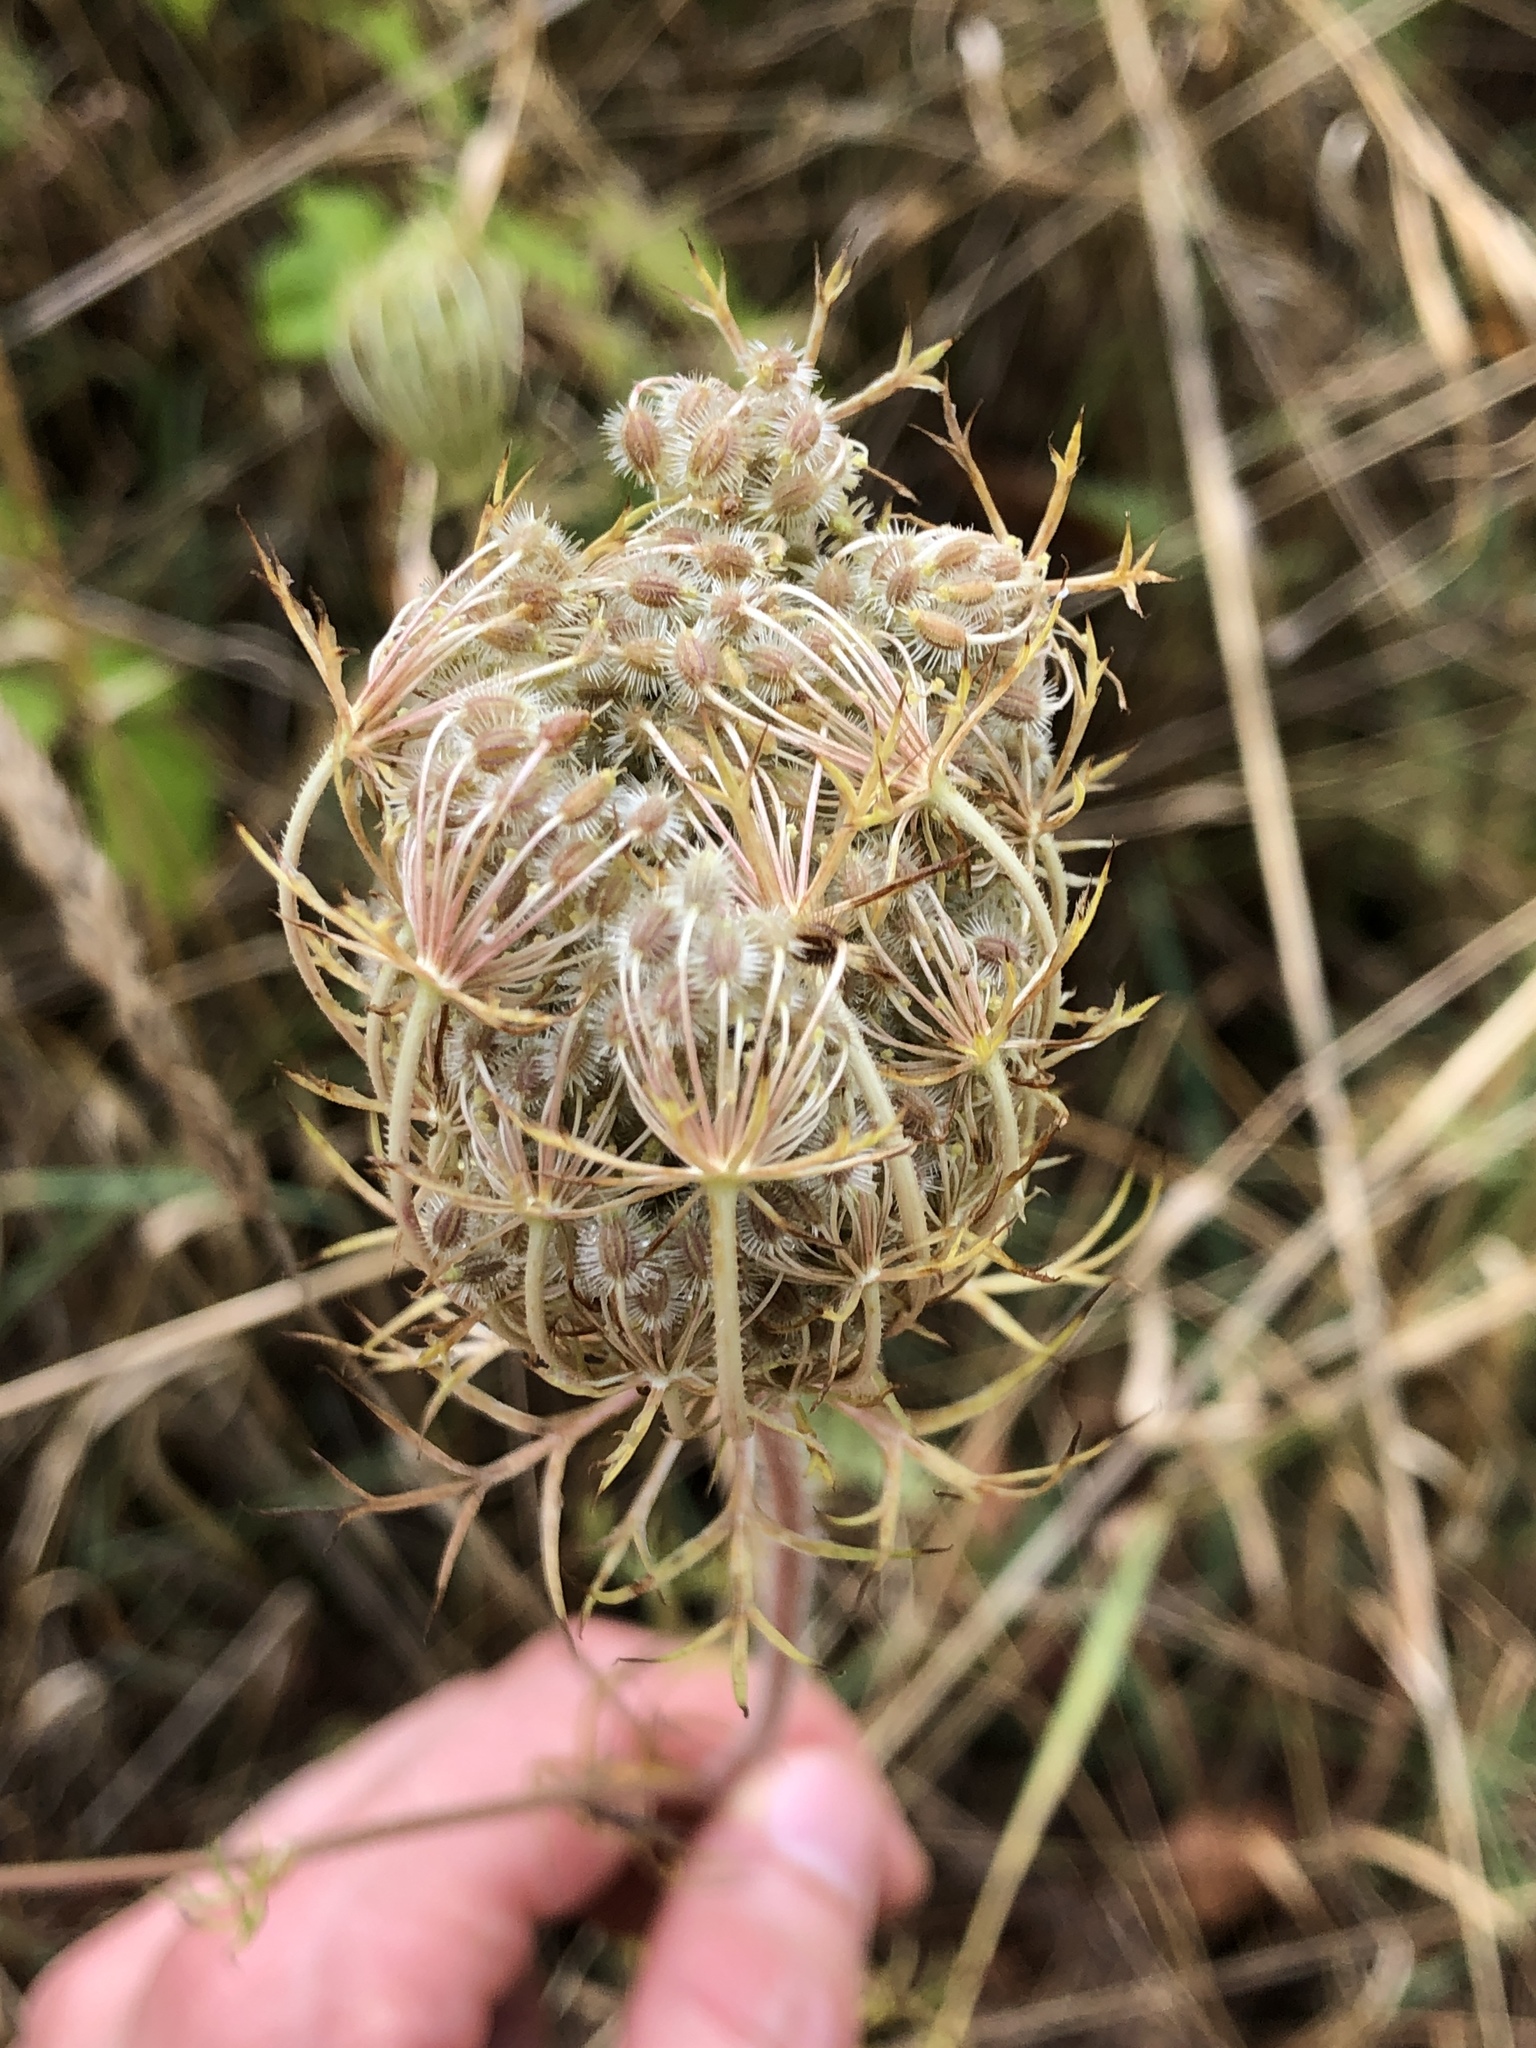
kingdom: Plantae
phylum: Tracheophyta
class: Magnoliopsida
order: Apiales
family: Apiaceae
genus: Daucus
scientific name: Daucus carota
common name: Wild carrot
